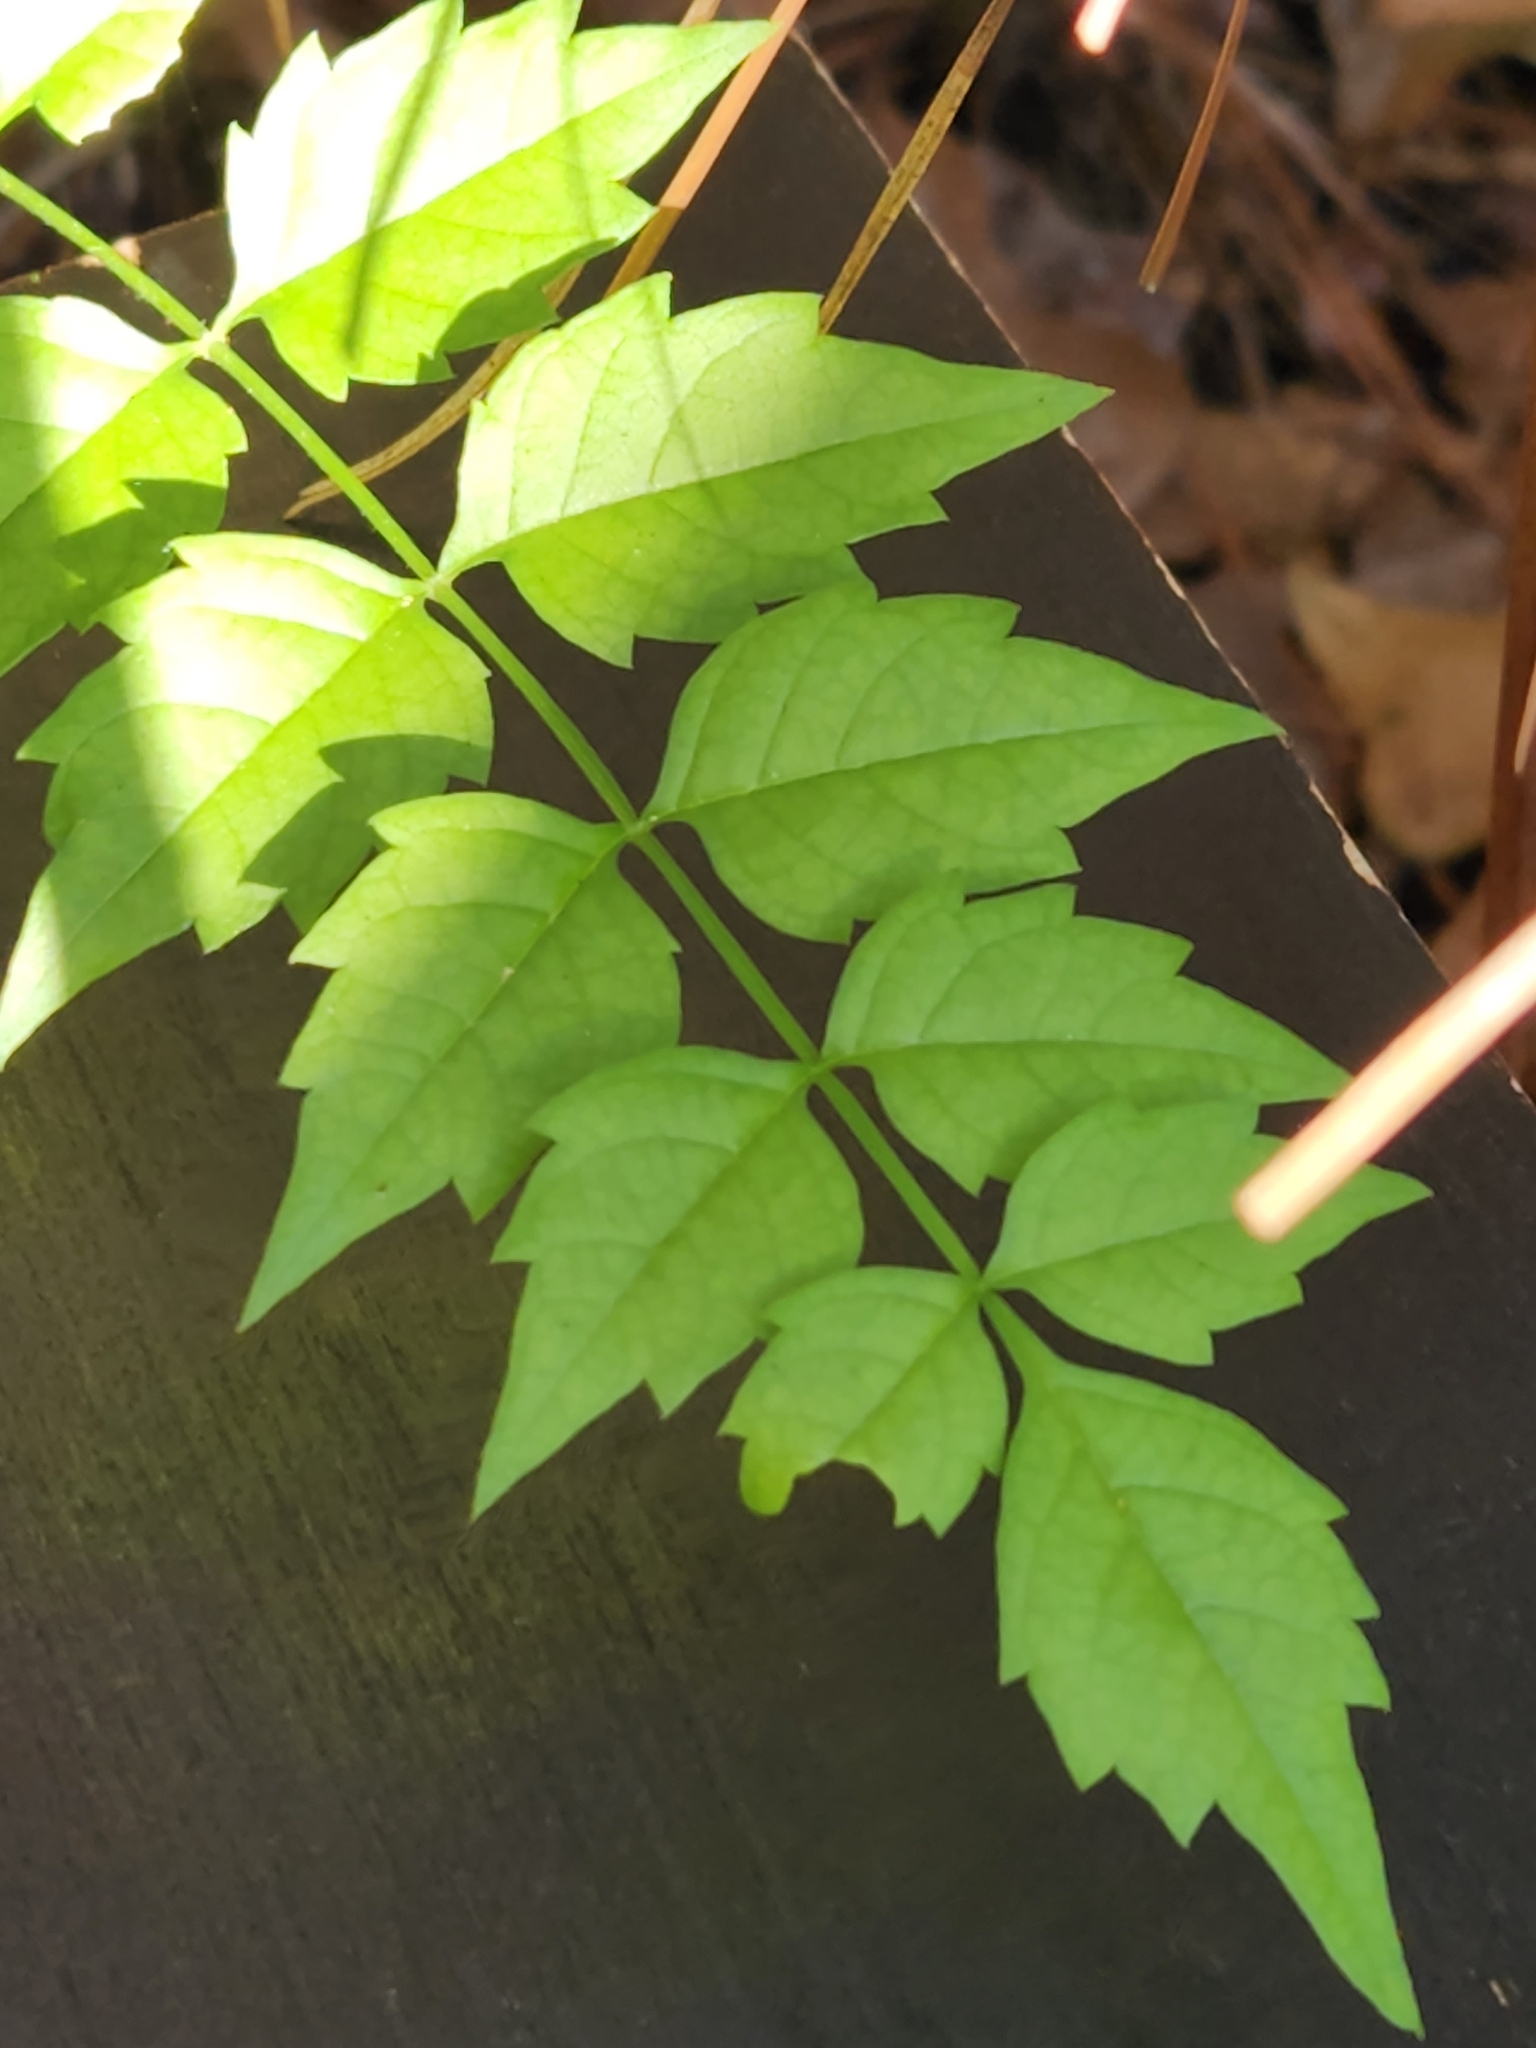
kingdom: Plantae
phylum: Tracheophyta
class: Magnoliopsida
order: Lamiales
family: Bignoniaceae
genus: Campsis
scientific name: Campsis radicans
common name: Trumpet-creeper
